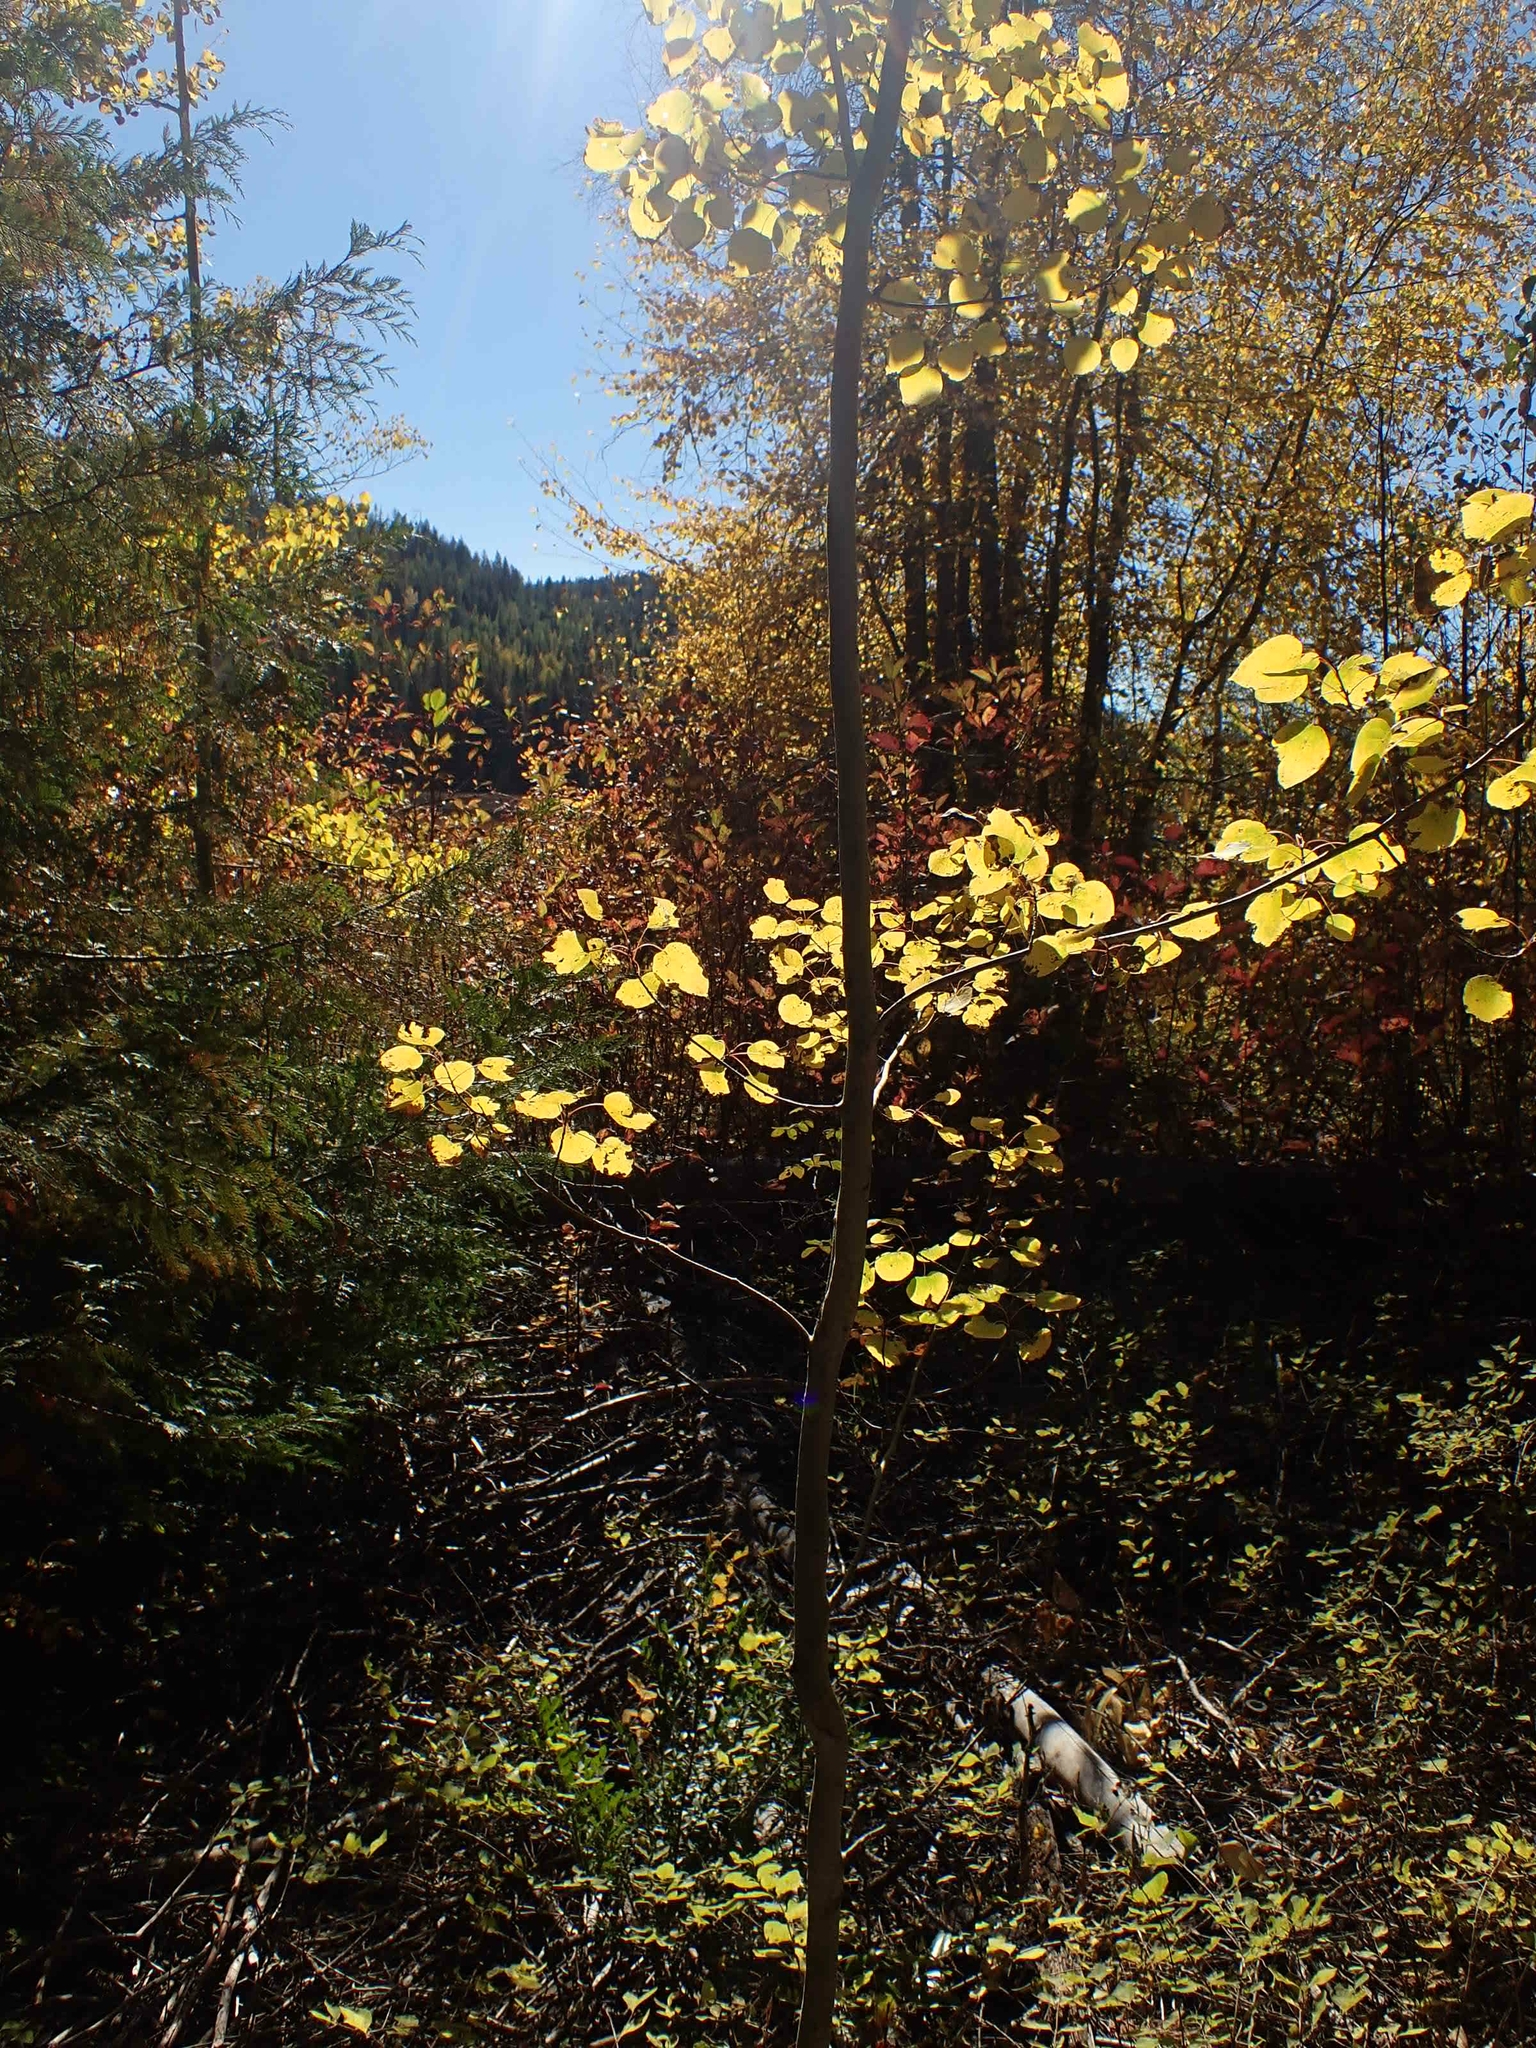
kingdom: Plantae
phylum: Tracheophyta
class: Magnoliopsida
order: Malpighiales
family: Salicaceae
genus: Populus
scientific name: Populus tremuloides
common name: Quaking aspen
